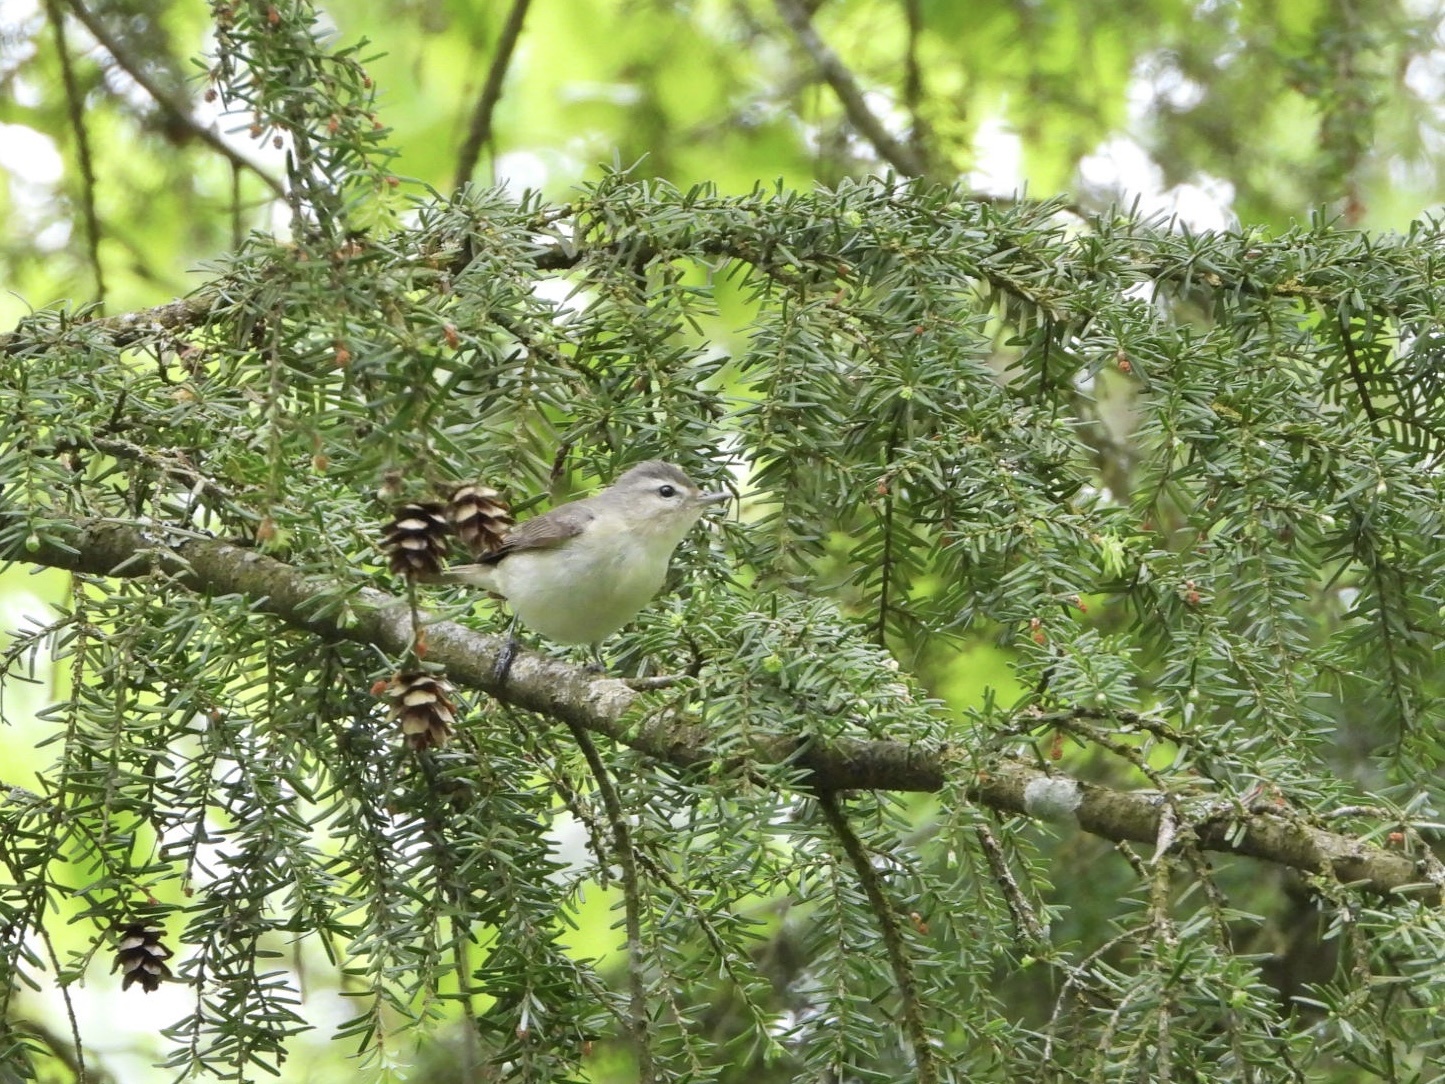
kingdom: Animalia
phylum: Chordata
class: Aves
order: Passeriformes
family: Vireonidae
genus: Vireo
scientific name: Vireo gilvus
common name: Warbling vireo
